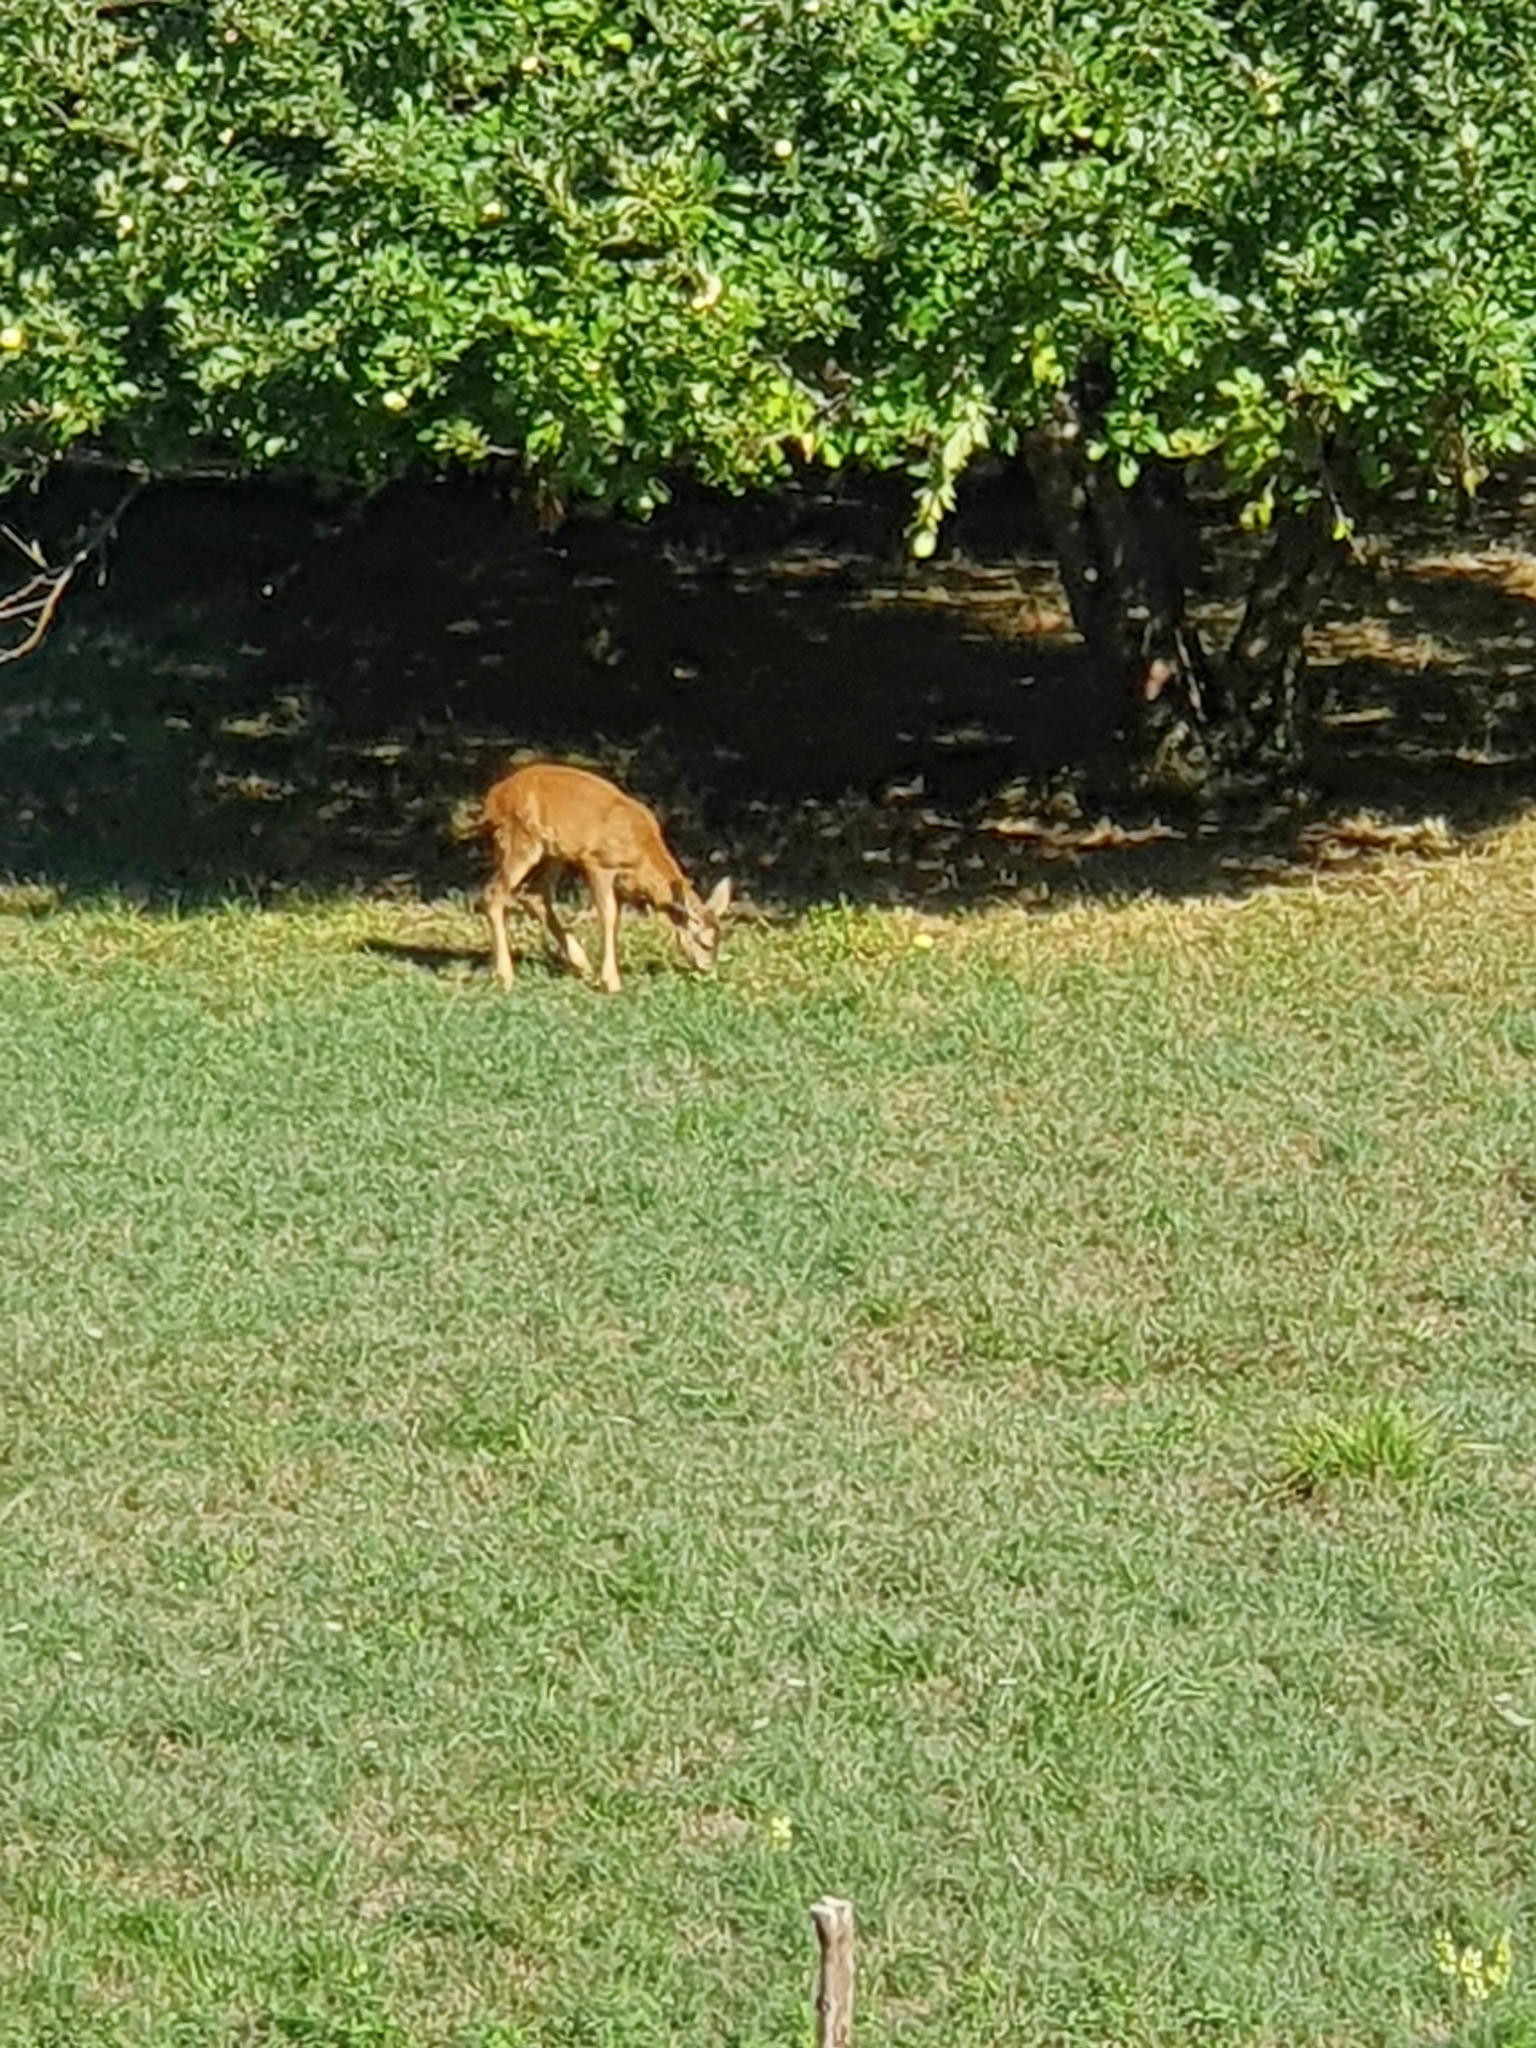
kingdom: Animalia
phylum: Chordata
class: Mammalia
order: Artiodactyla
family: Cervidae
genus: Capreolus
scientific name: Capreolus capreolus
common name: Western roe deer
